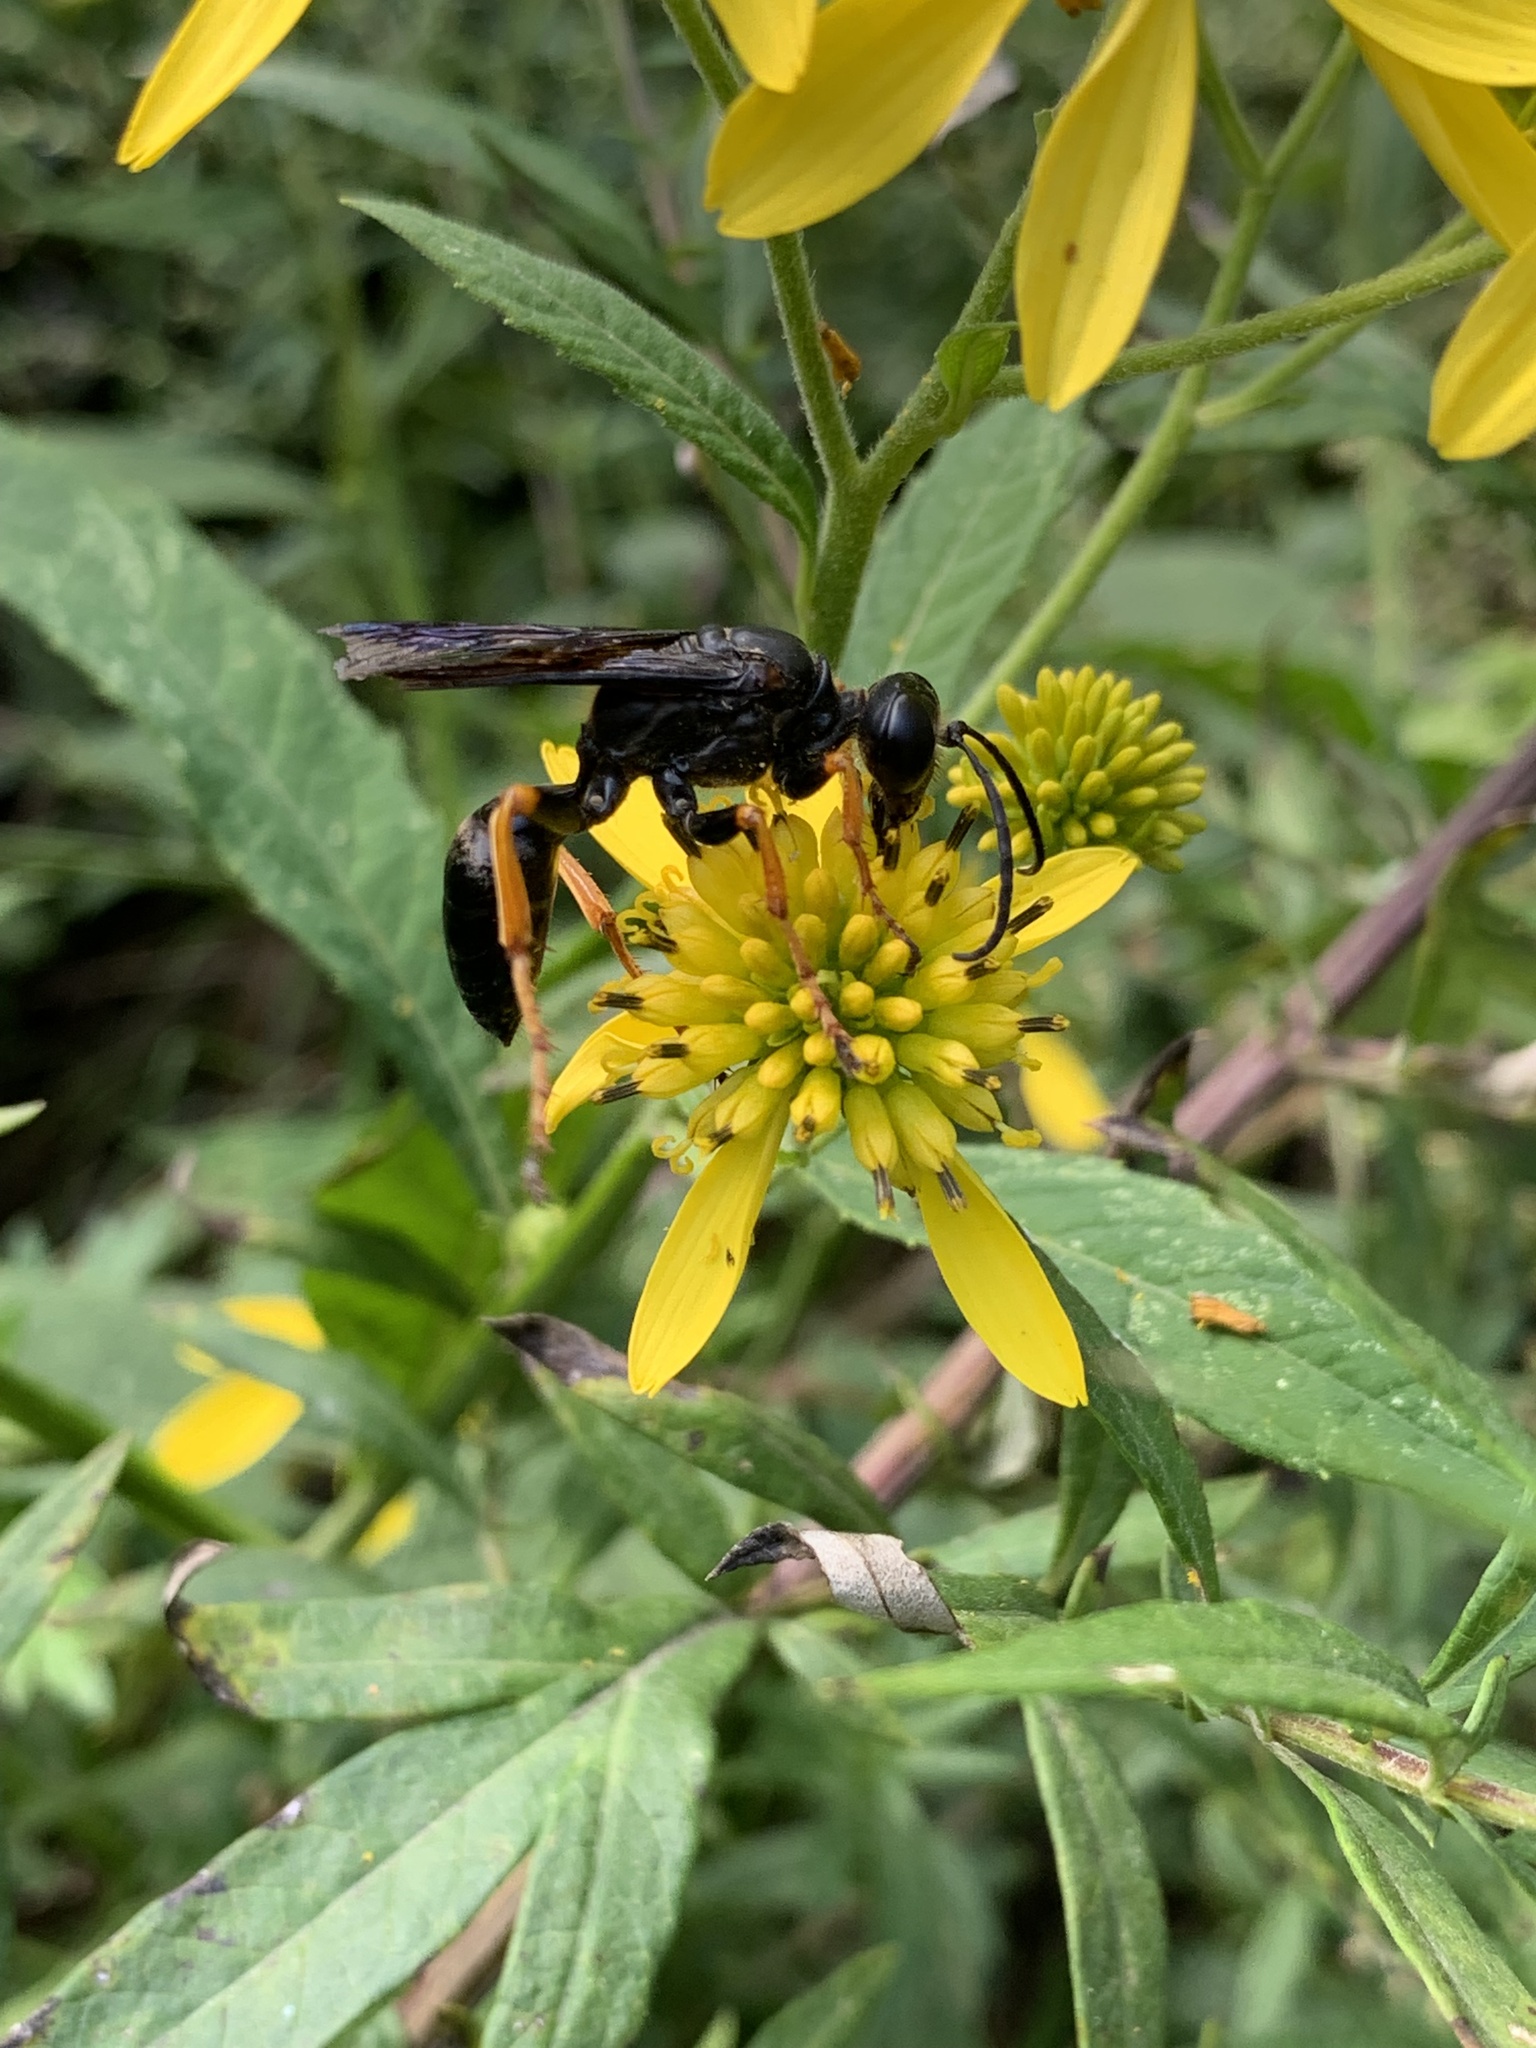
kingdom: Animalia
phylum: Arthropoda
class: Insecta
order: Hymenoptera
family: Sphecidae
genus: Sphex
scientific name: Sphex nudus
